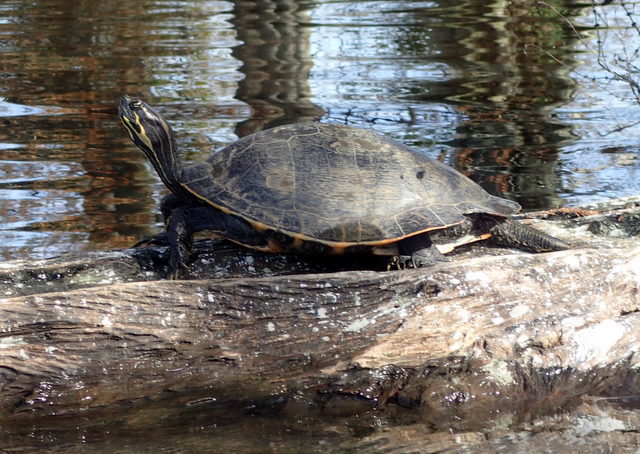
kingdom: Animalia
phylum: Chordata
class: Testudines
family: Emydidae
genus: Pseudemys
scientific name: Pseudemys peninsularis
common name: Peninsula cooter
